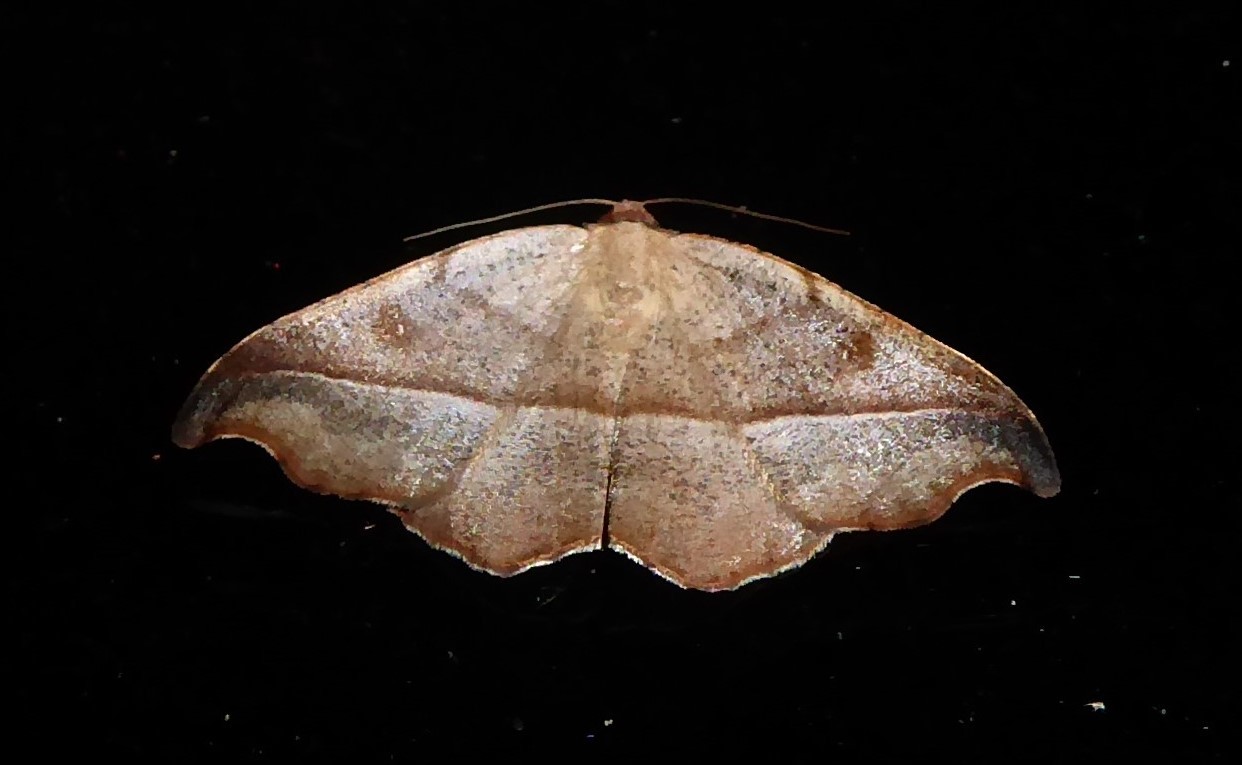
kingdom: Animalia
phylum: Arthropoda
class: Insecta
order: Lepidoptera
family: Geometridae
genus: Sarisa
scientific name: Sarisa muriferata
